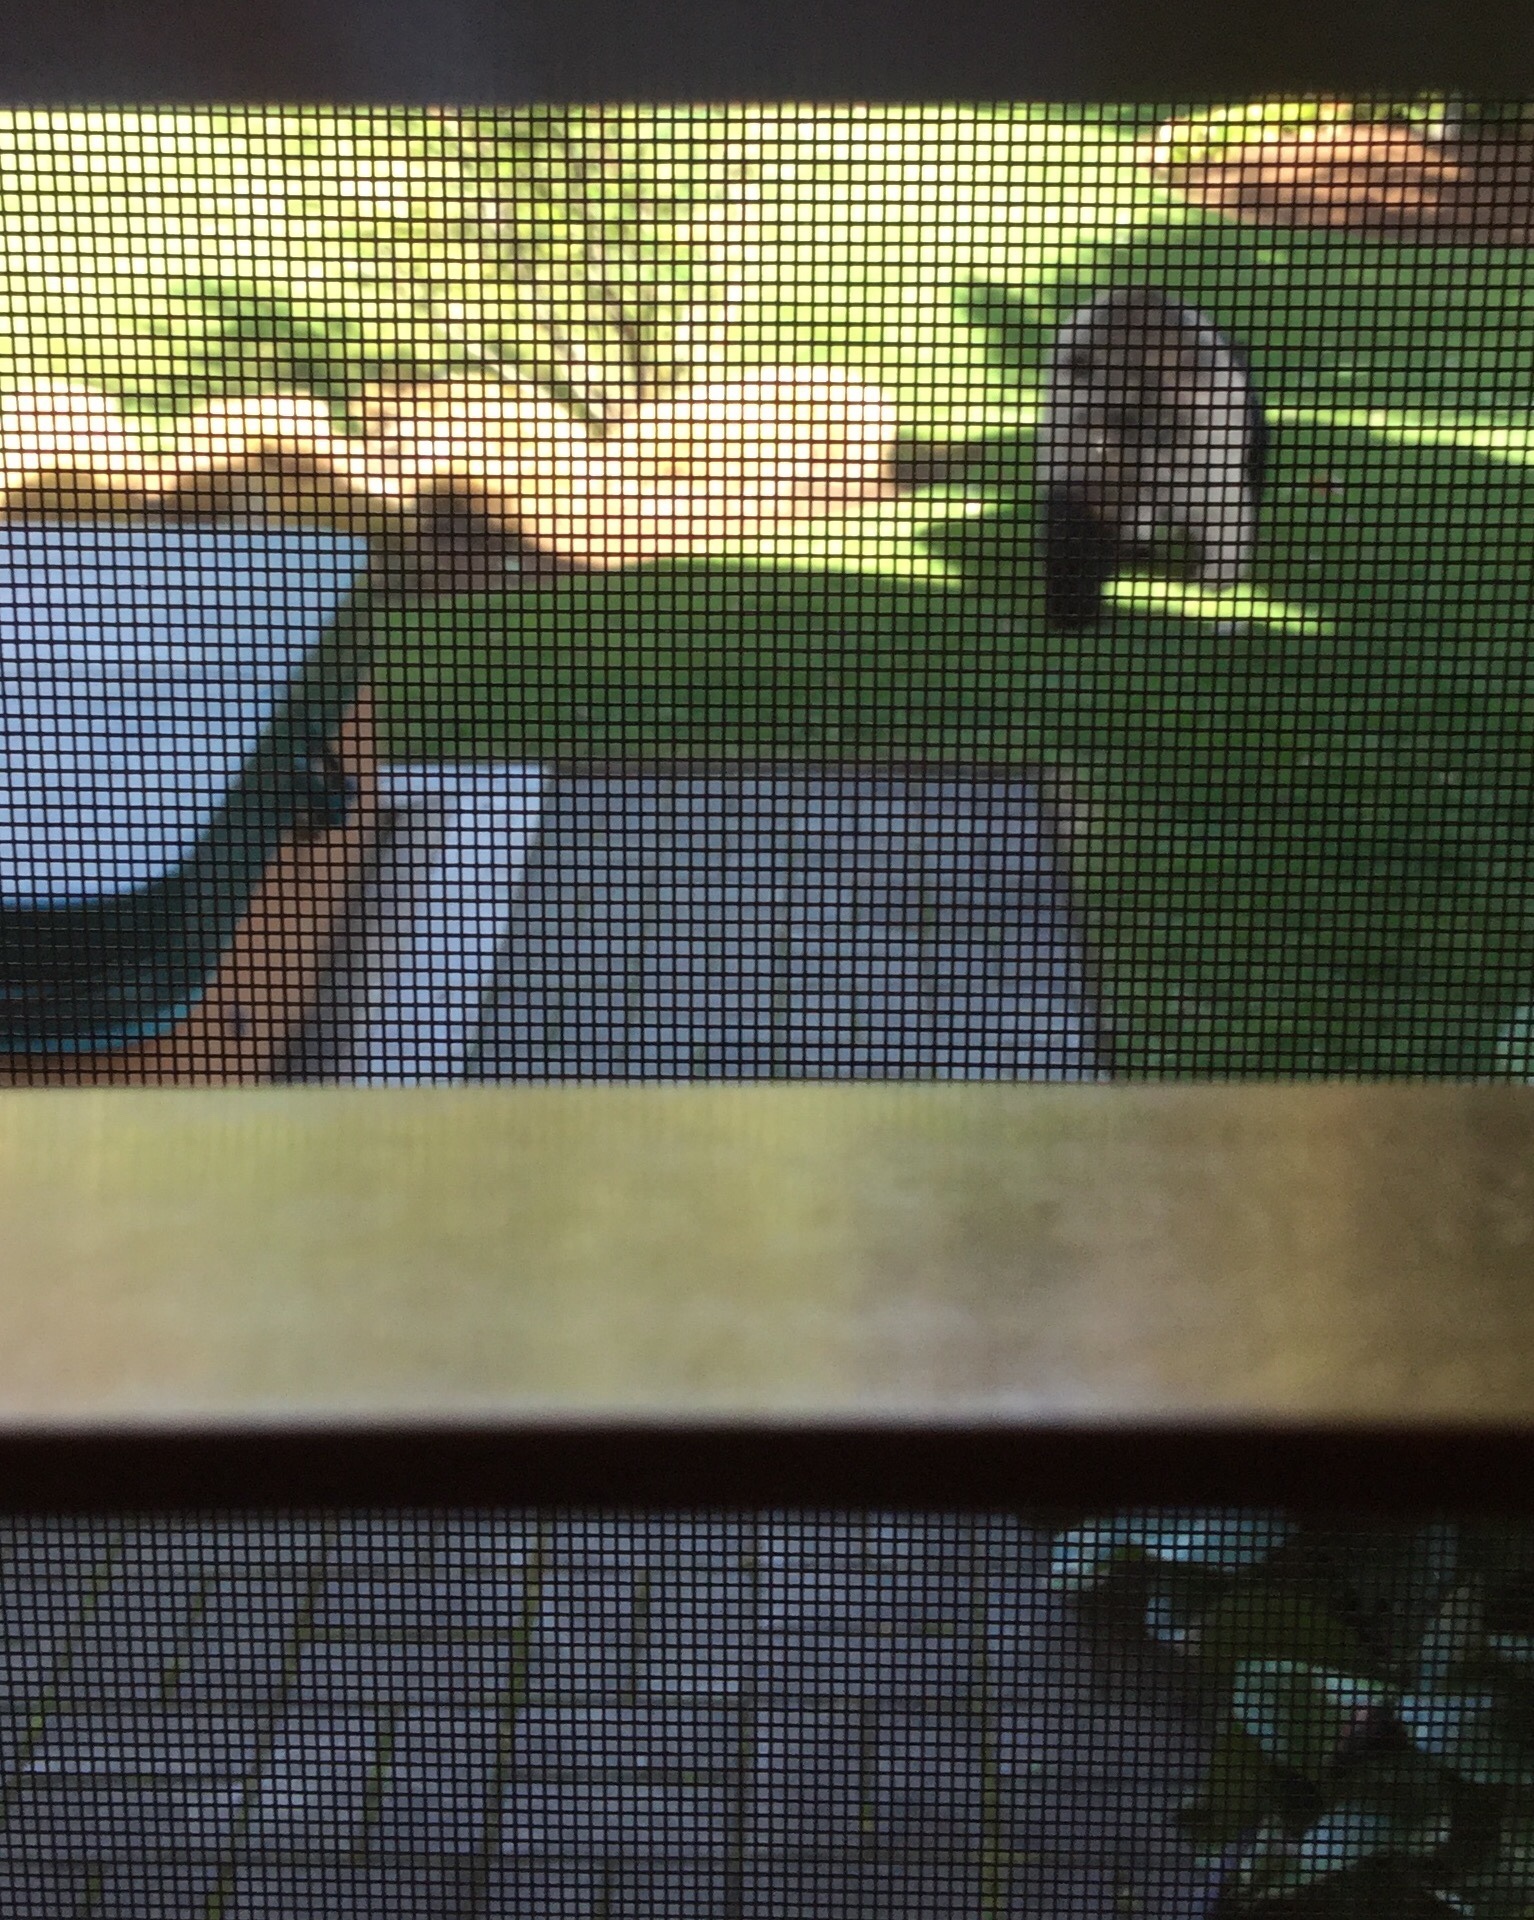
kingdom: Animalia
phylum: Chordata
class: Mammalia
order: Carnivora
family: Ursidae
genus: Ursus
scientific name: Ursus americanus
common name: American black bear
